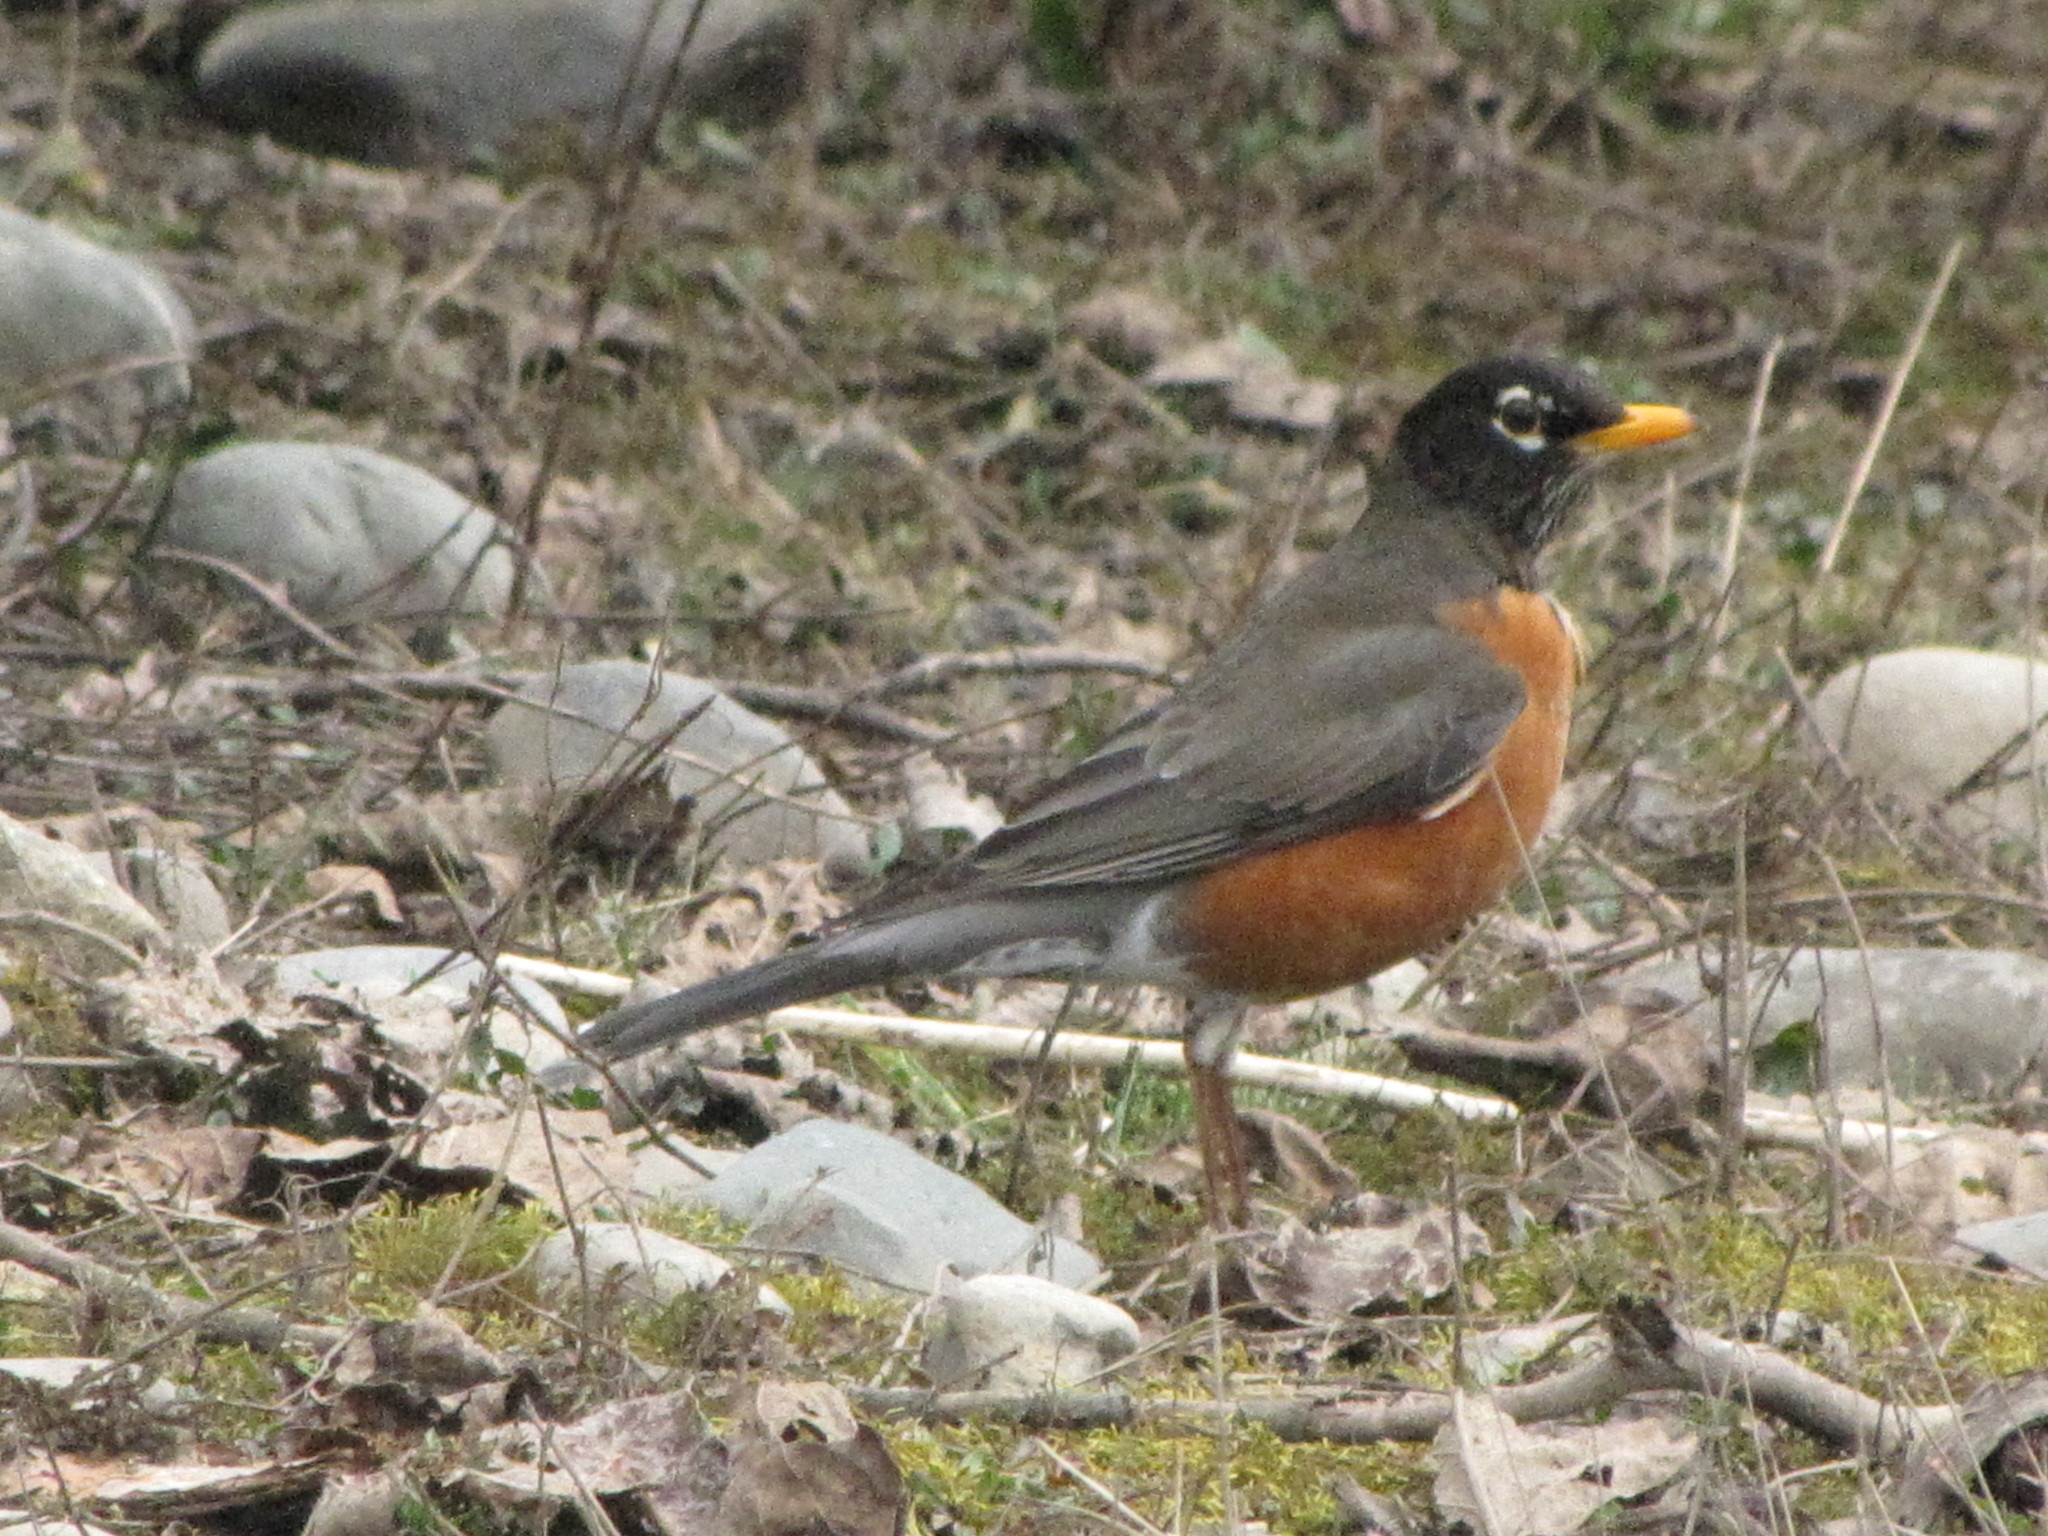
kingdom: Animalia
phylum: Chordata
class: Aves
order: Passeriformes
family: Turdidae
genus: Turdus
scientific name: Turdus migratorius
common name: American robin
